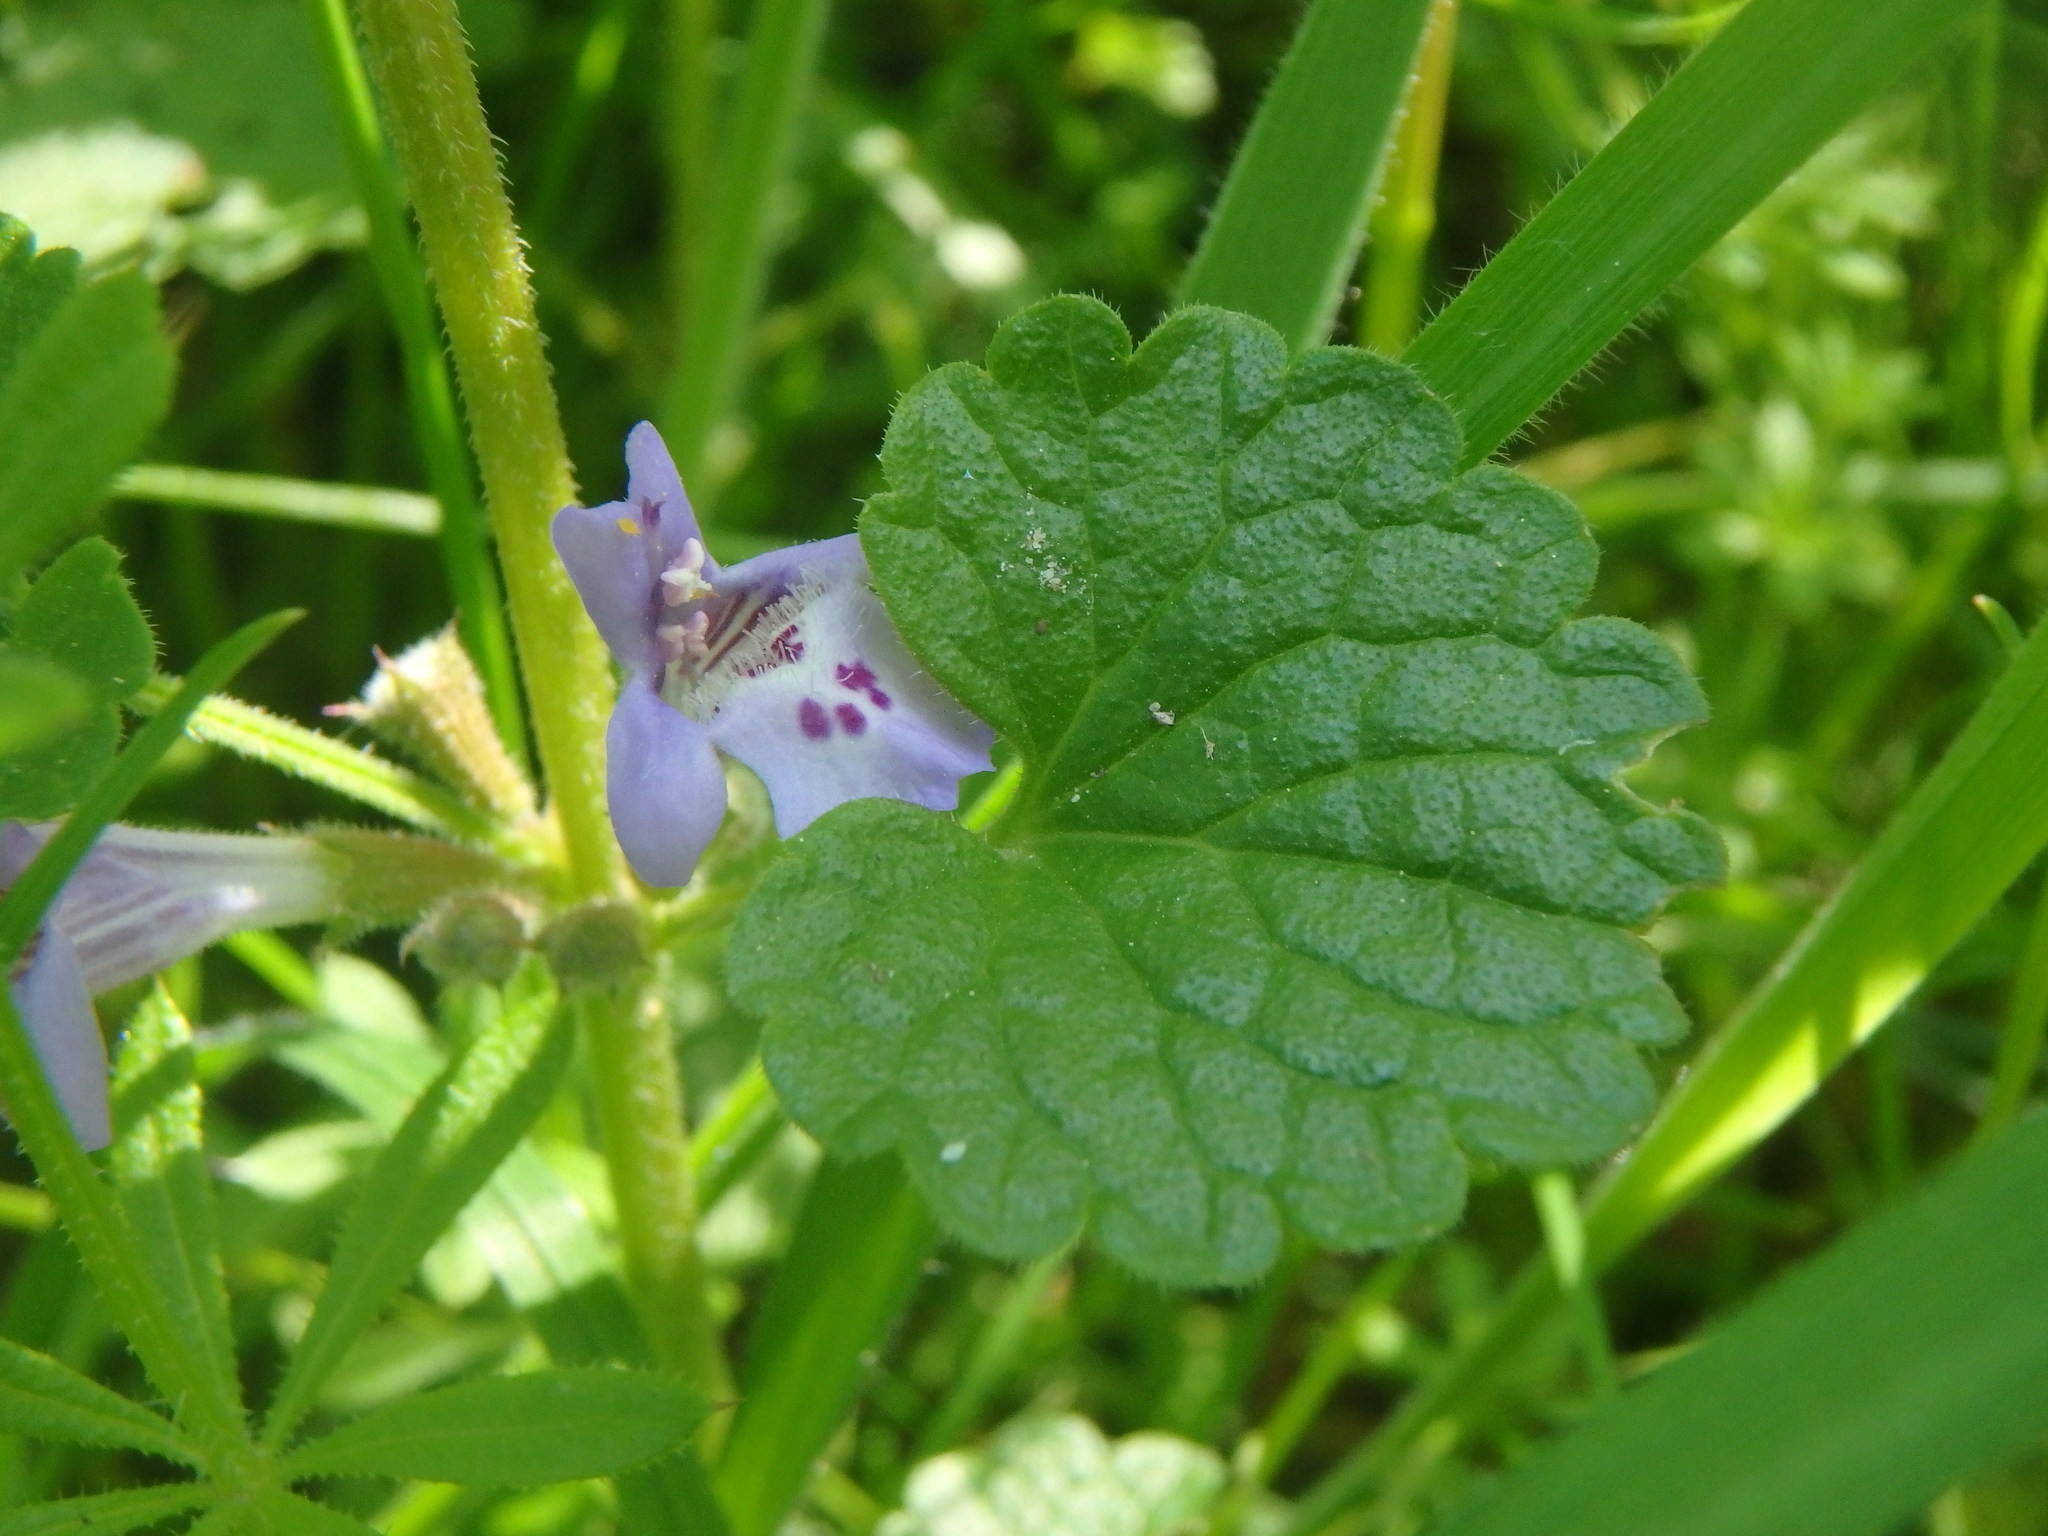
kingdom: Plantae
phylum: Tracheophyta
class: Magnoliopsida
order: Lamiales
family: Lamiaceae
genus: Glechoma
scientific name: Glechoma hederacea
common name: Ground ivy
